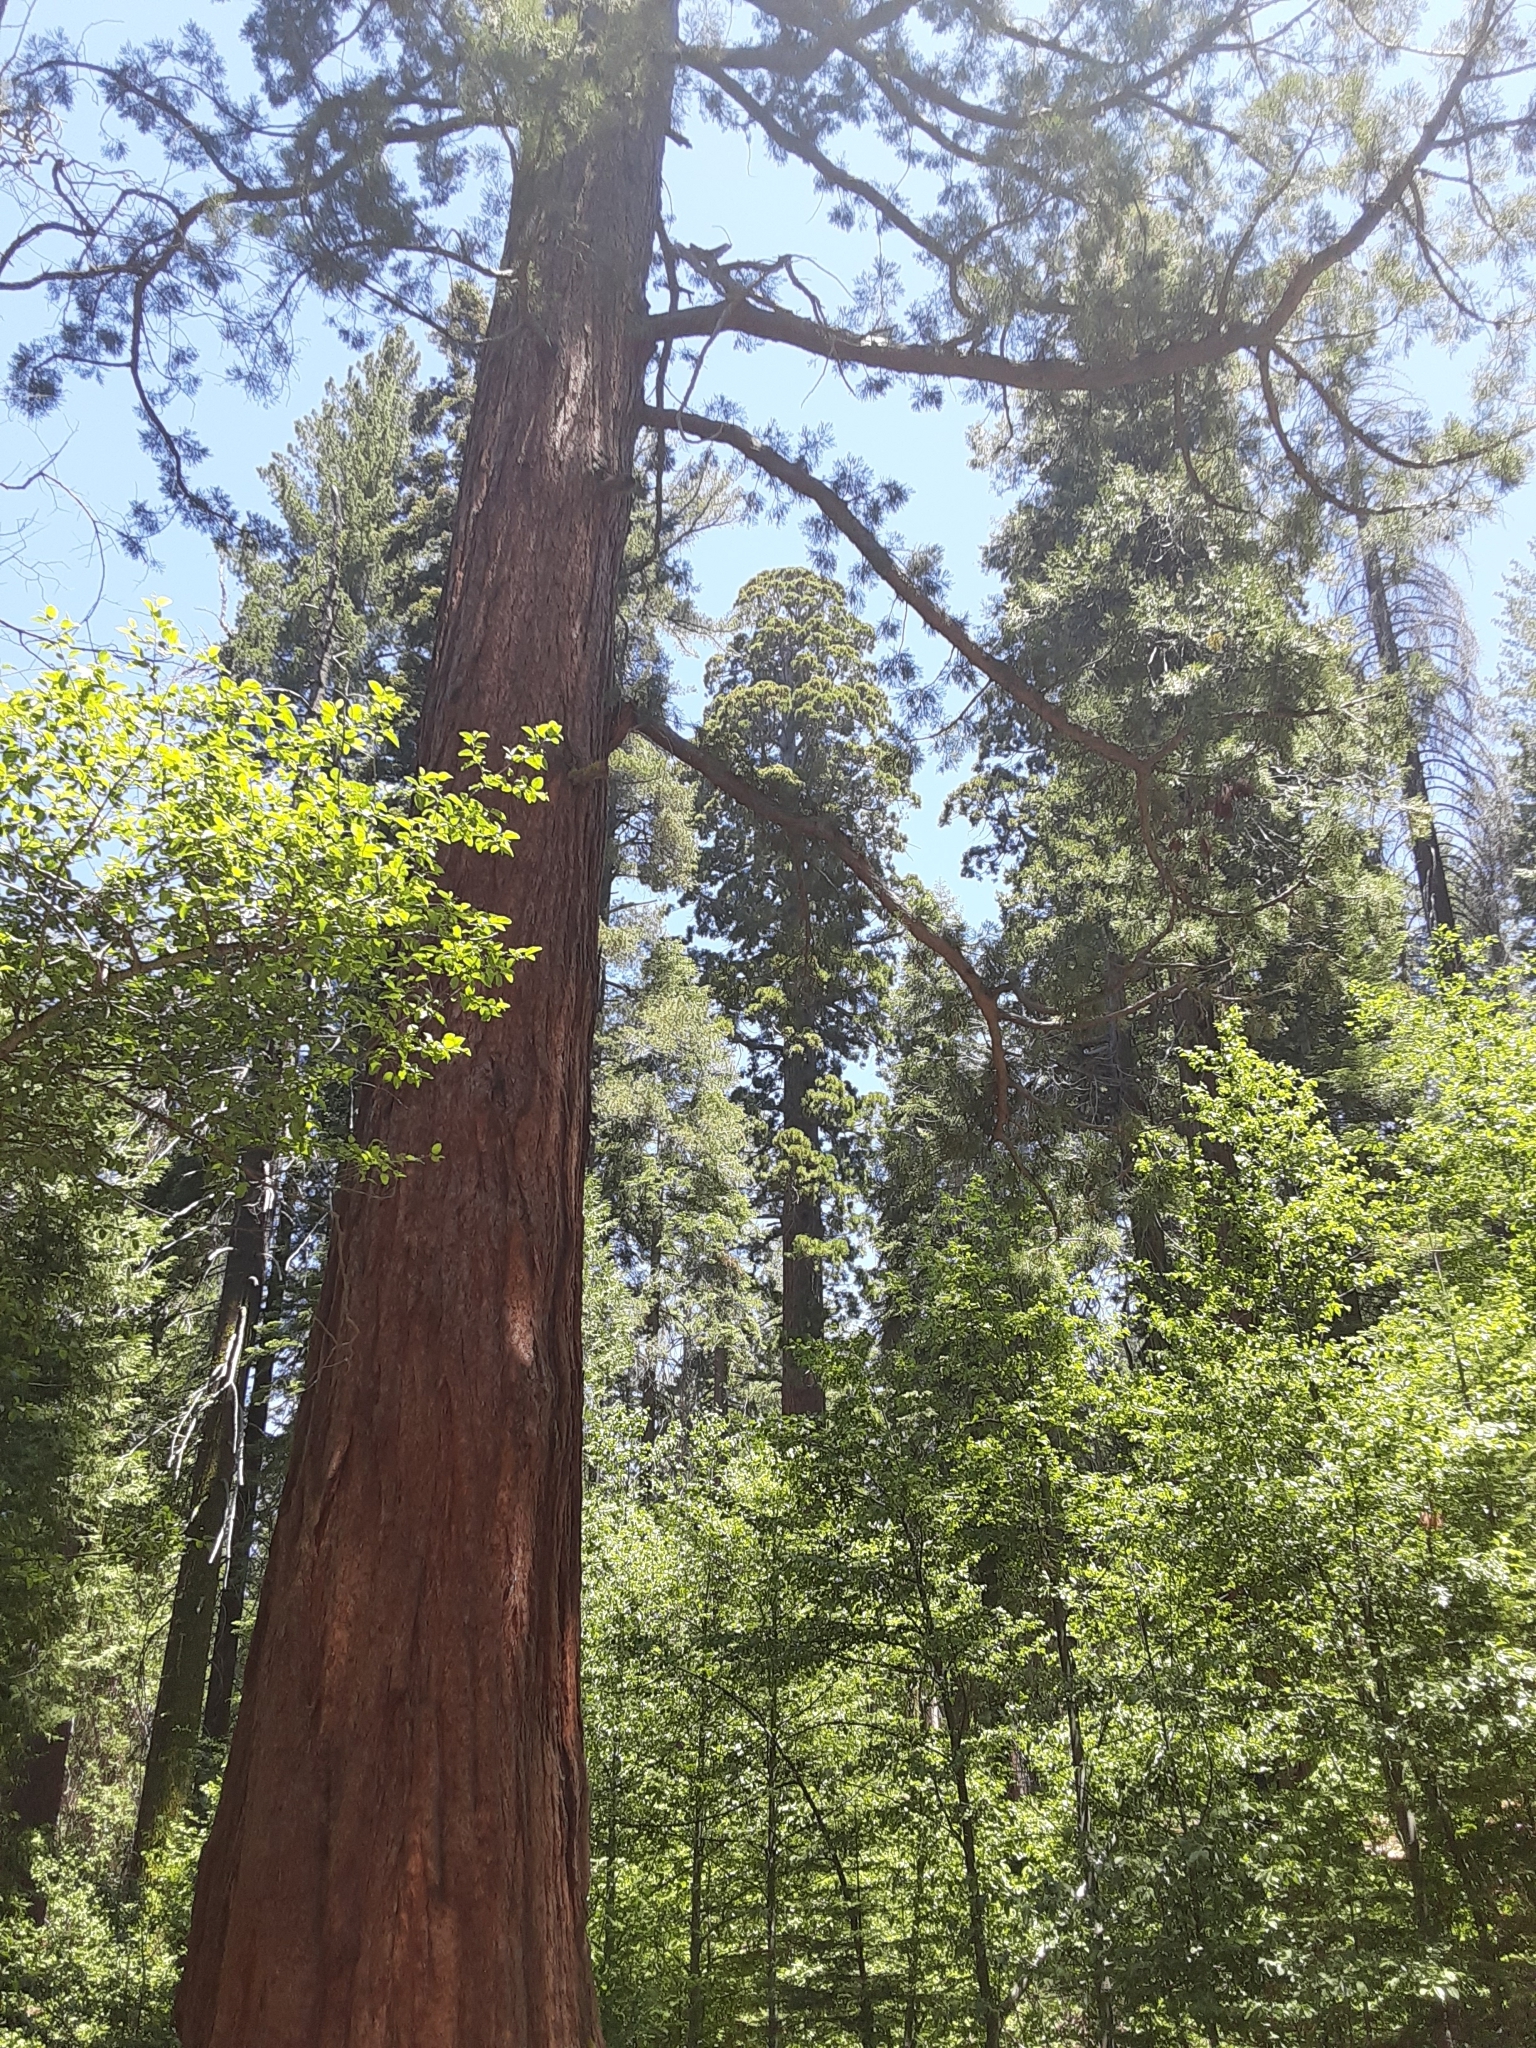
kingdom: Plantae
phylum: Tracheophyta
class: Pinopsida
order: Pinales
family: Cupressaceae
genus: Sequoiadendron
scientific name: Sequoiadendron giganteum
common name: Wellingtonia
